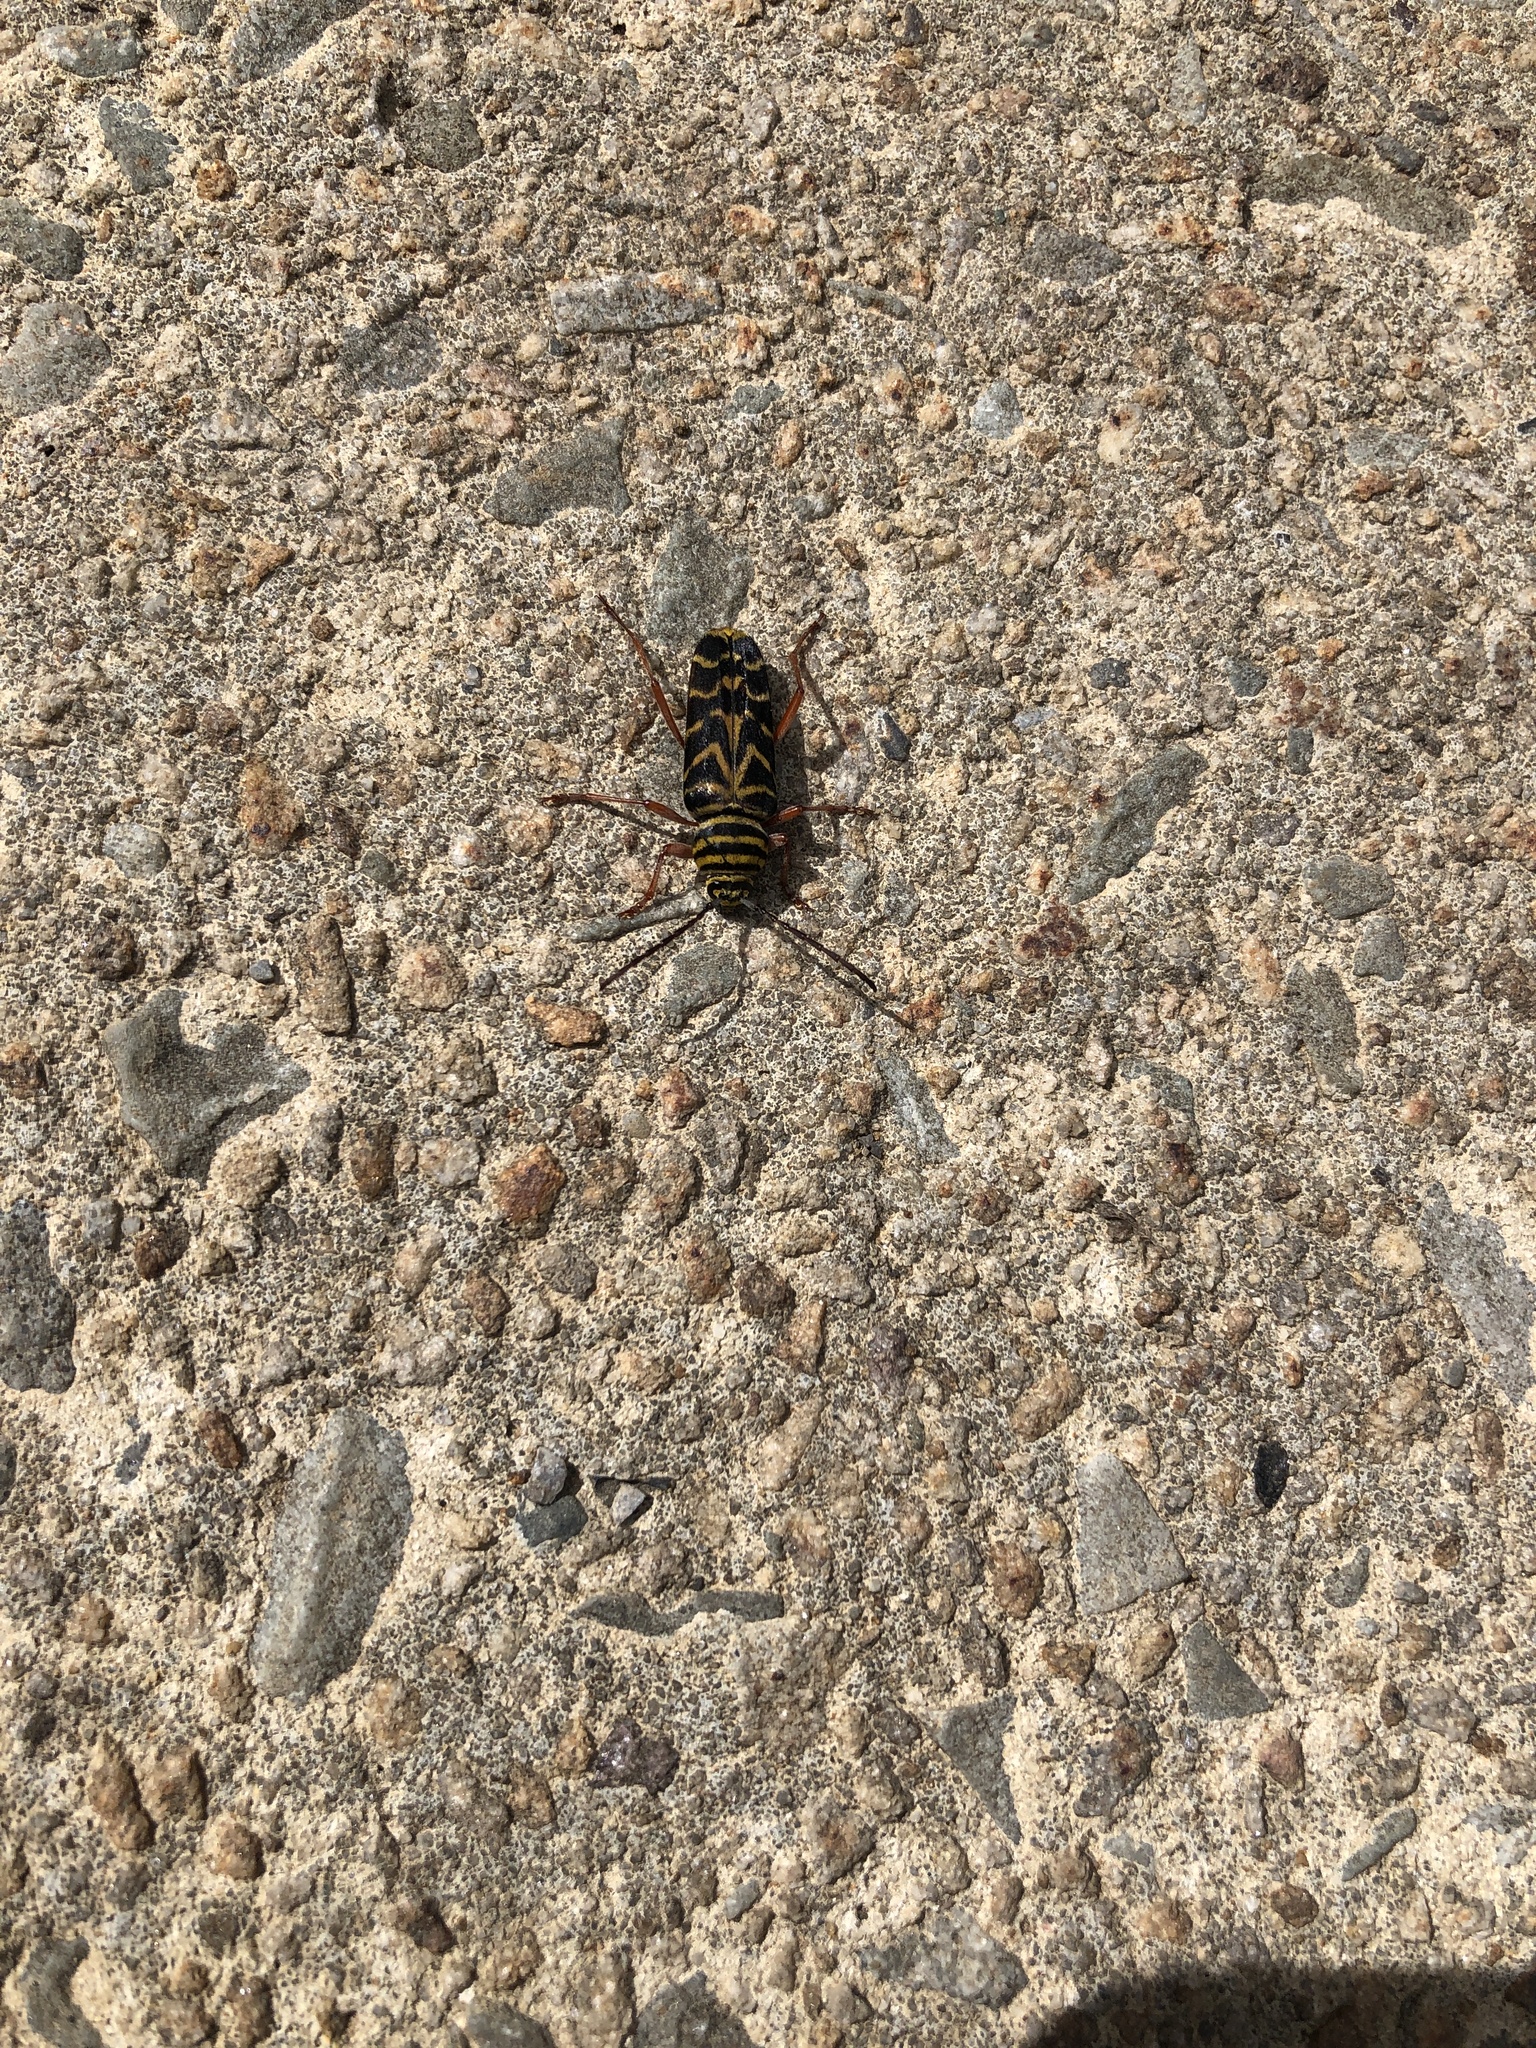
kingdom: Animalia
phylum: Arthropoda
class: Insecta
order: Coleoptera
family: Cerambycidae
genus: Megacyllene
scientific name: Megacyllene robiniae
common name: Locust borer
